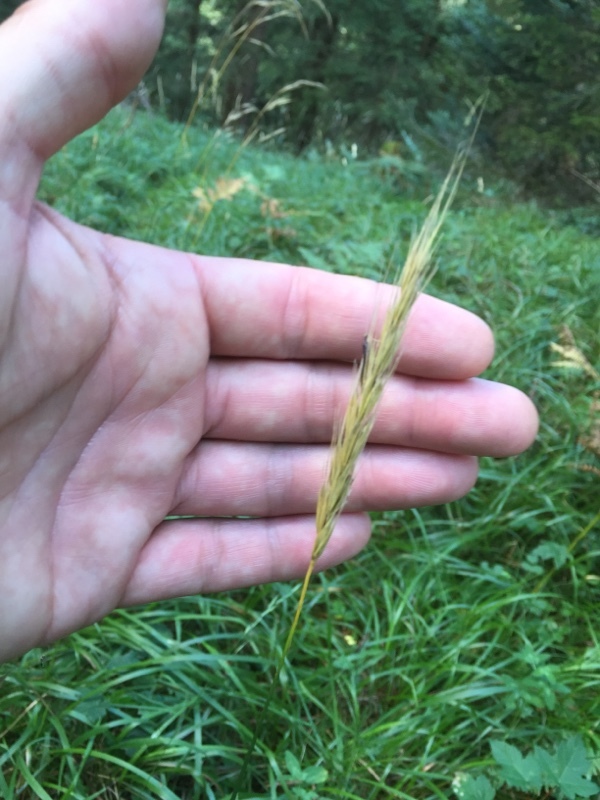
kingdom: Plantae
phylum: Tracheophyta
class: Liliopsida
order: Poales
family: Poaceae
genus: Hordelymus
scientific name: Hordelymus europaeus
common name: Wood-barley
